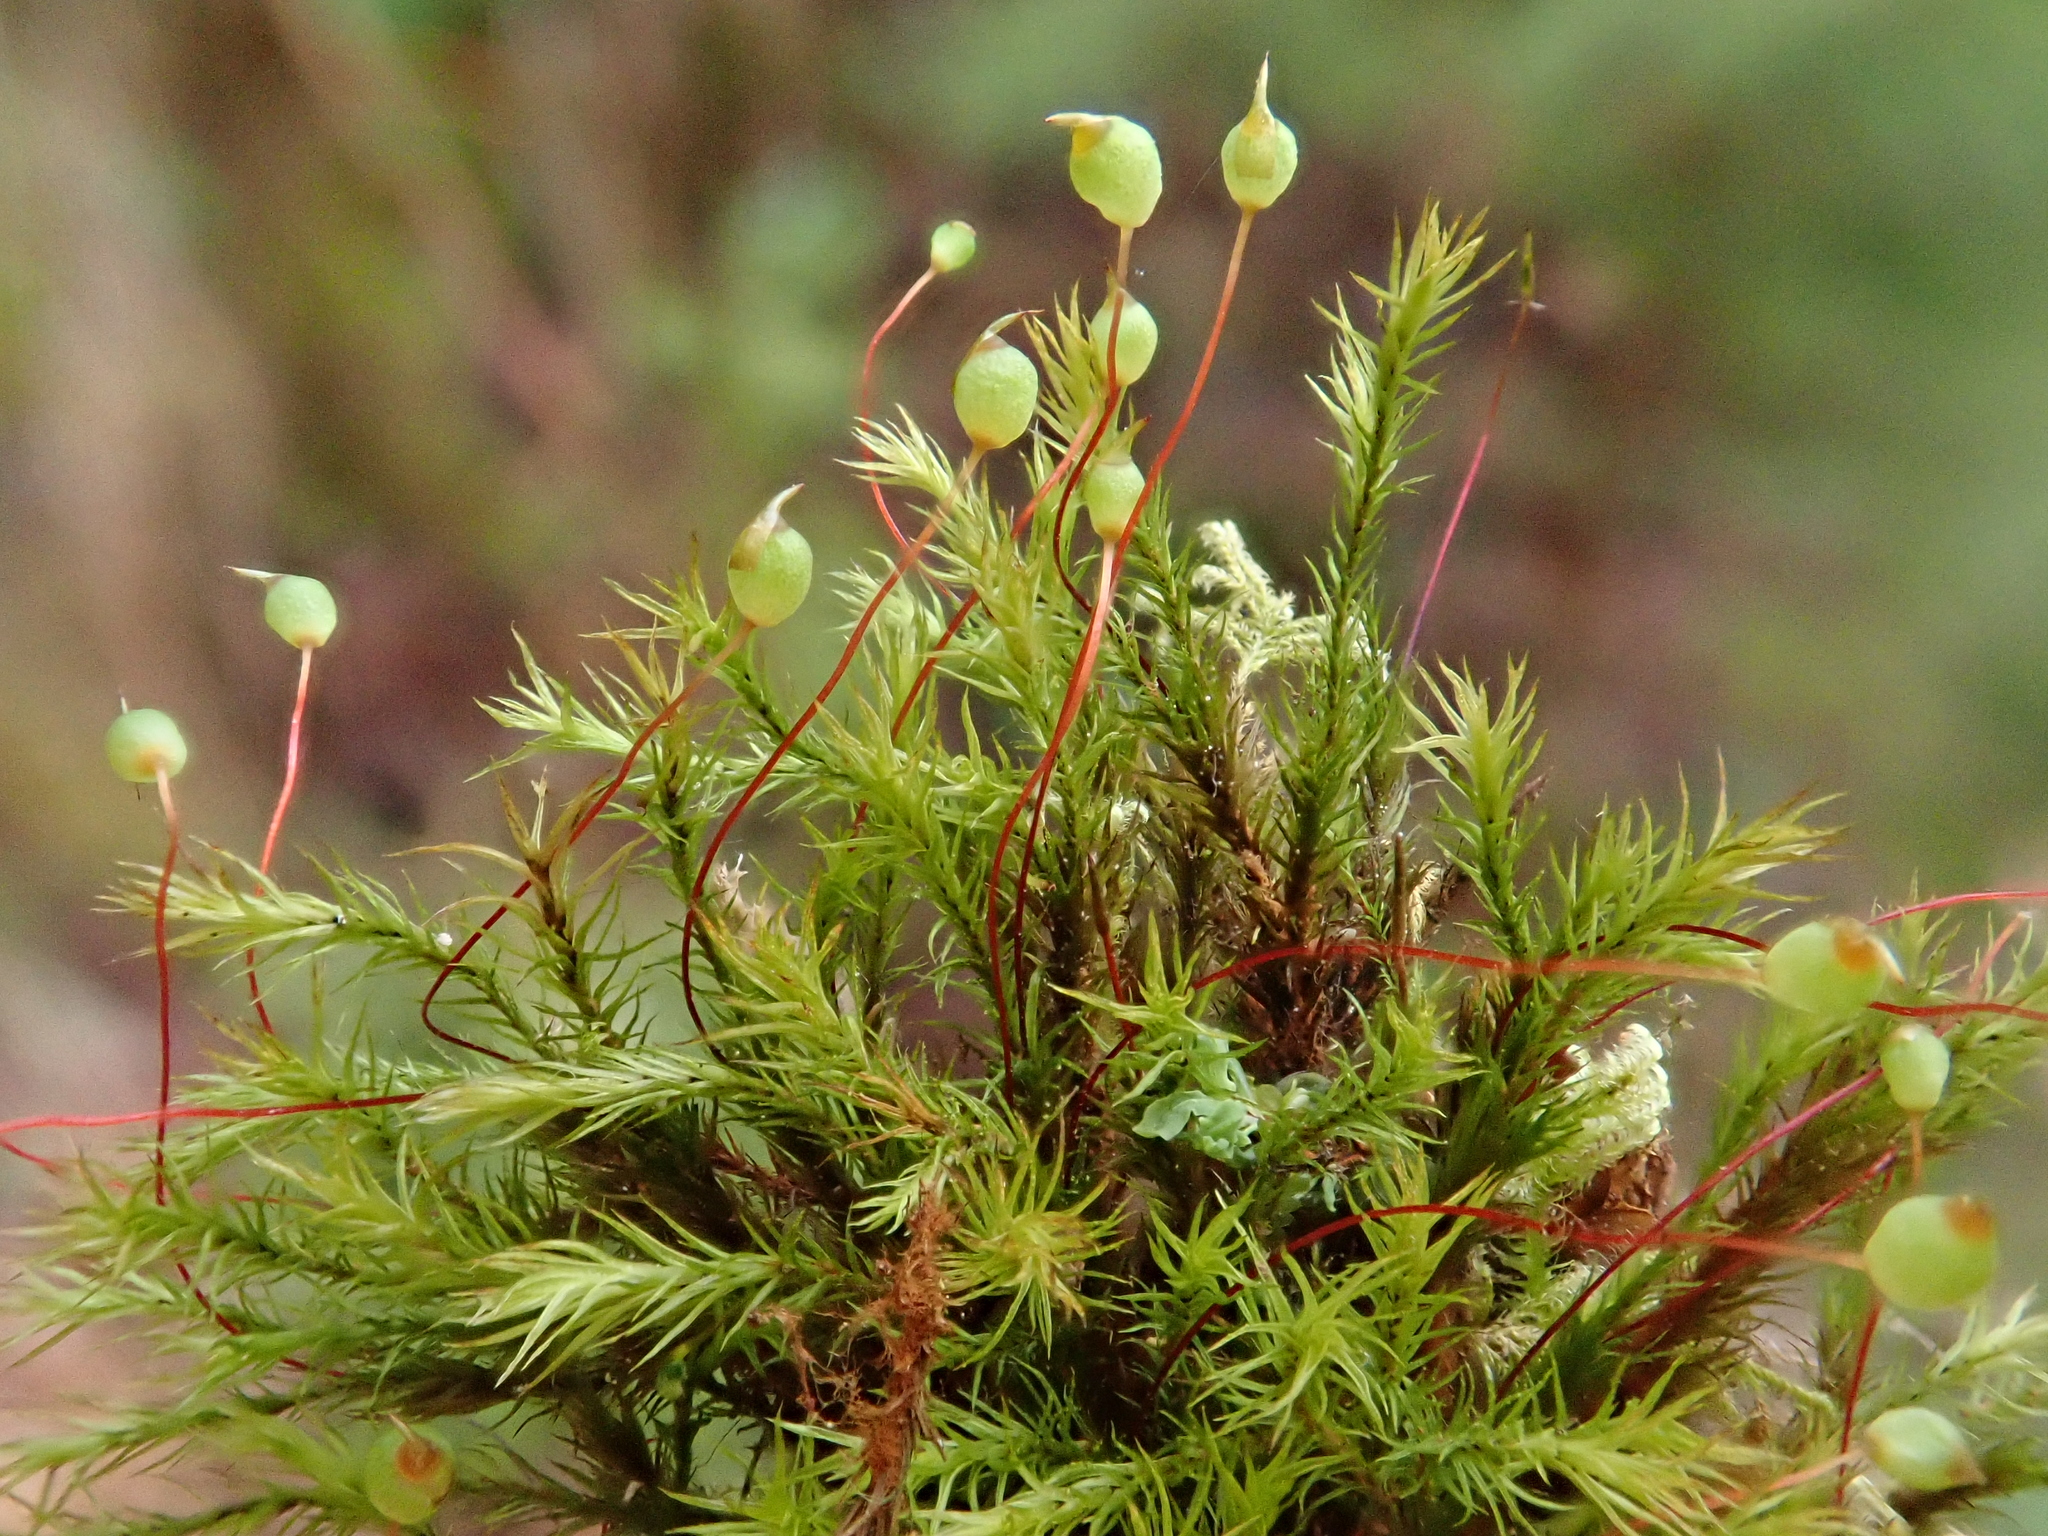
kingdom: Plantae
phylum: Bryophyta
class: Bryopsida
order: Bartramiales
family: Bartramiaceae
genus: Plagiopus
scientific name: Plagiopus oederianus
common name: Oeder's apple moss
